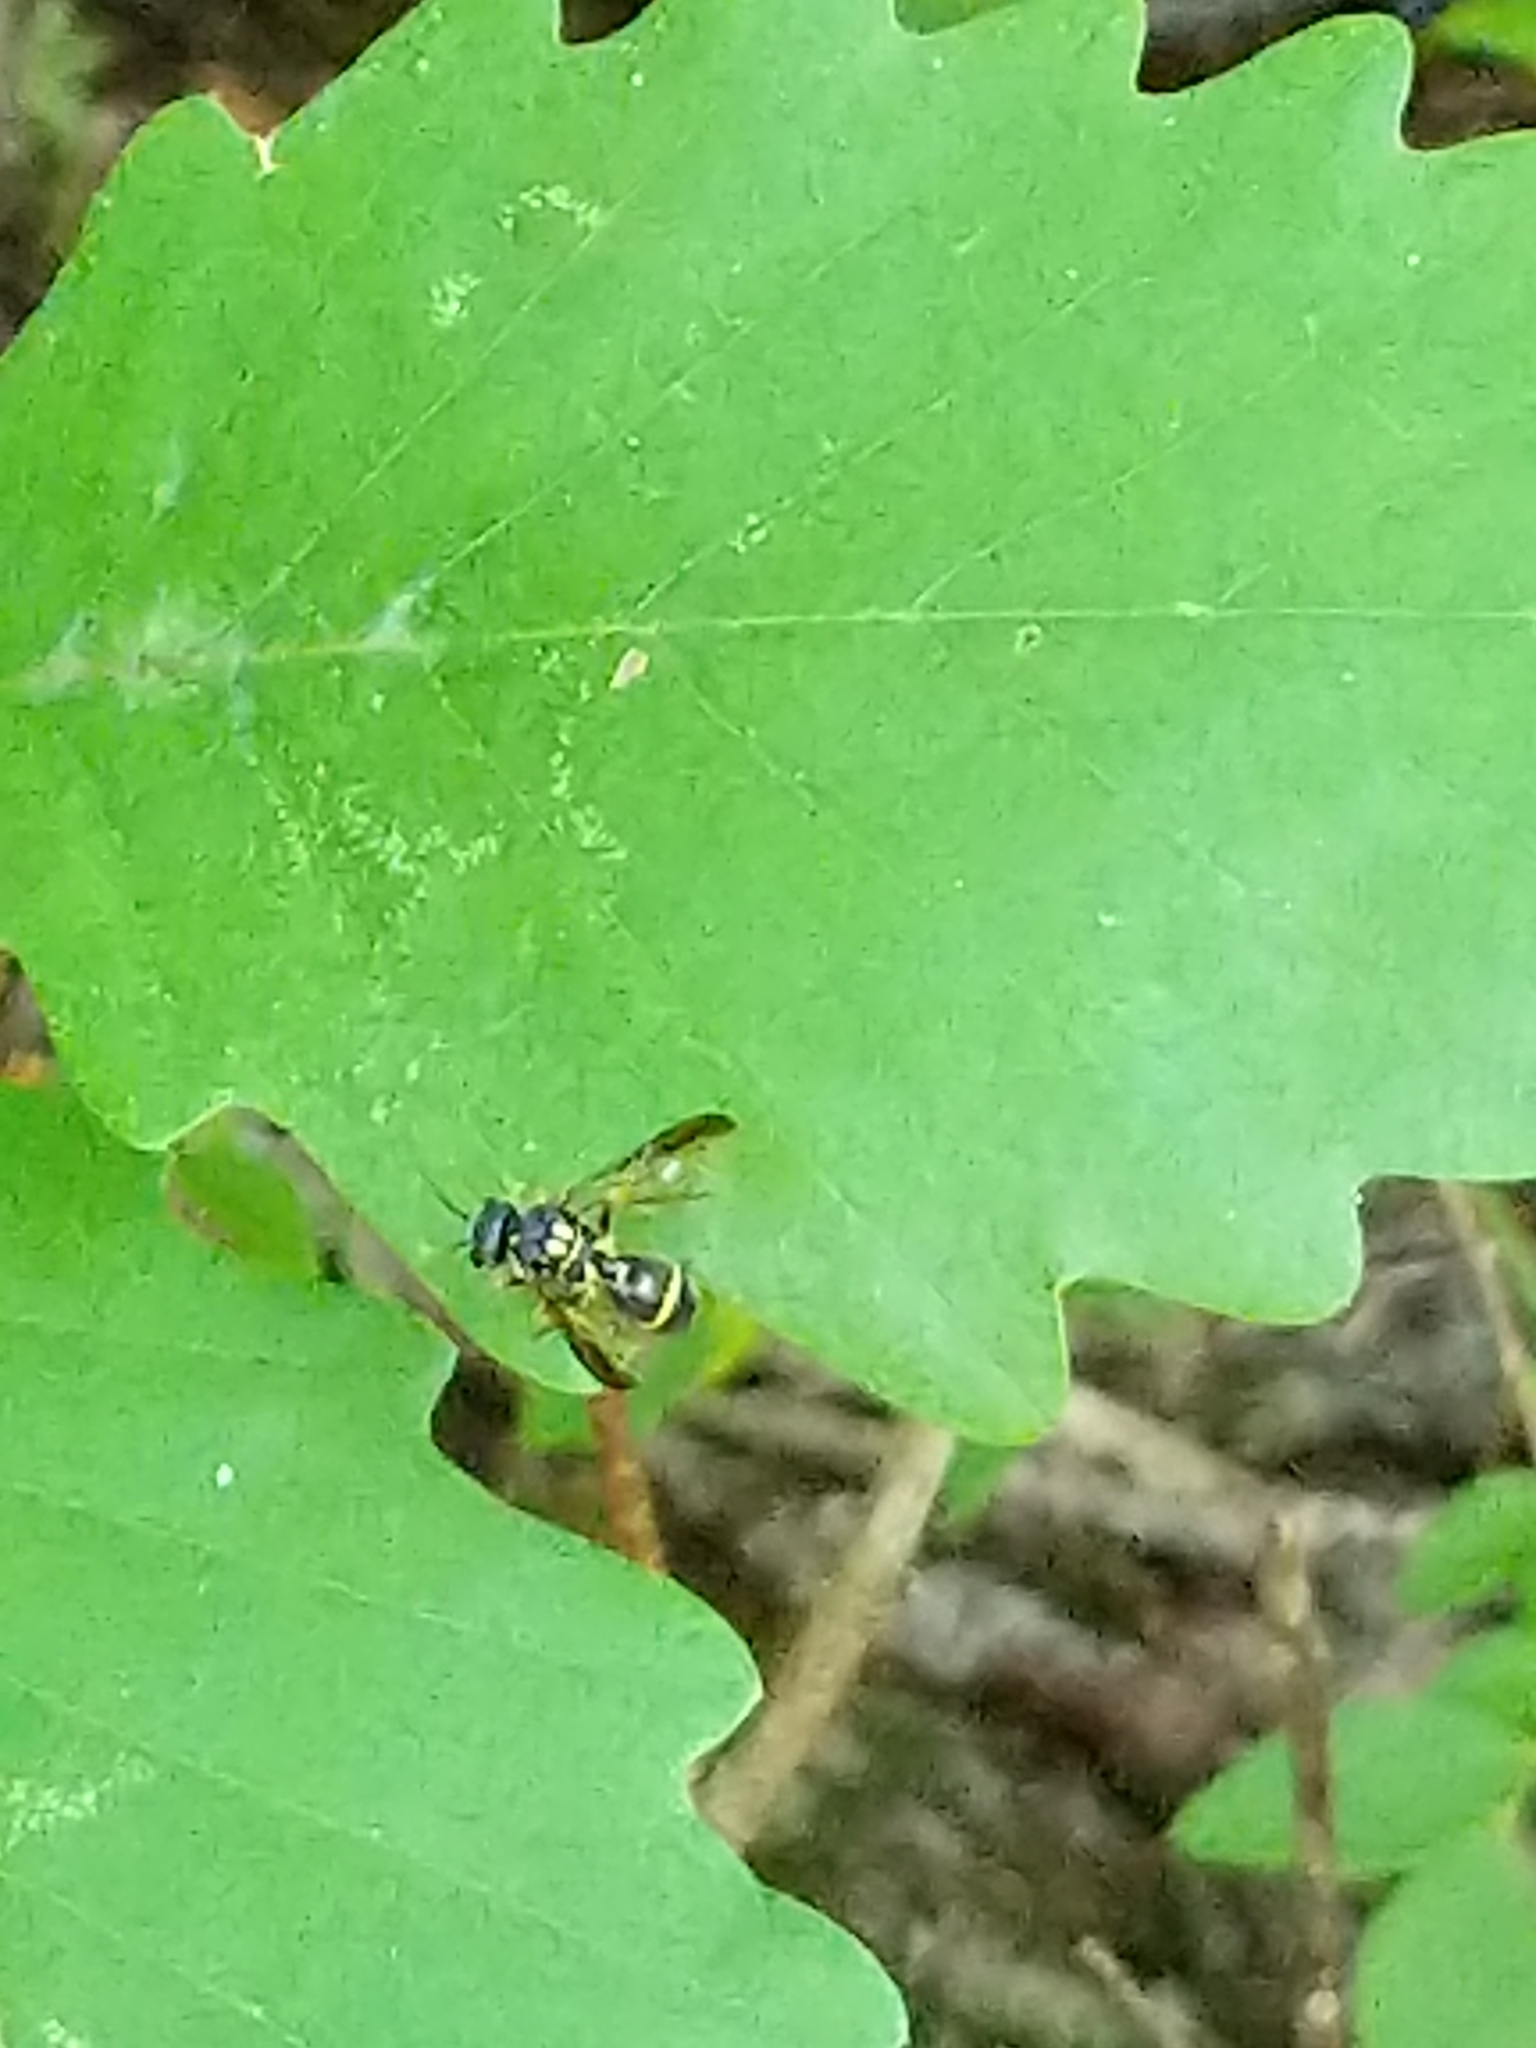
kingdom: Animalia
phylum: Arthropoda
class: Insecta
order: Hymenoptera
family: Trigonalidae
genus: Taeniogonalos
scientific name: Taeniogonalos gundlachii
